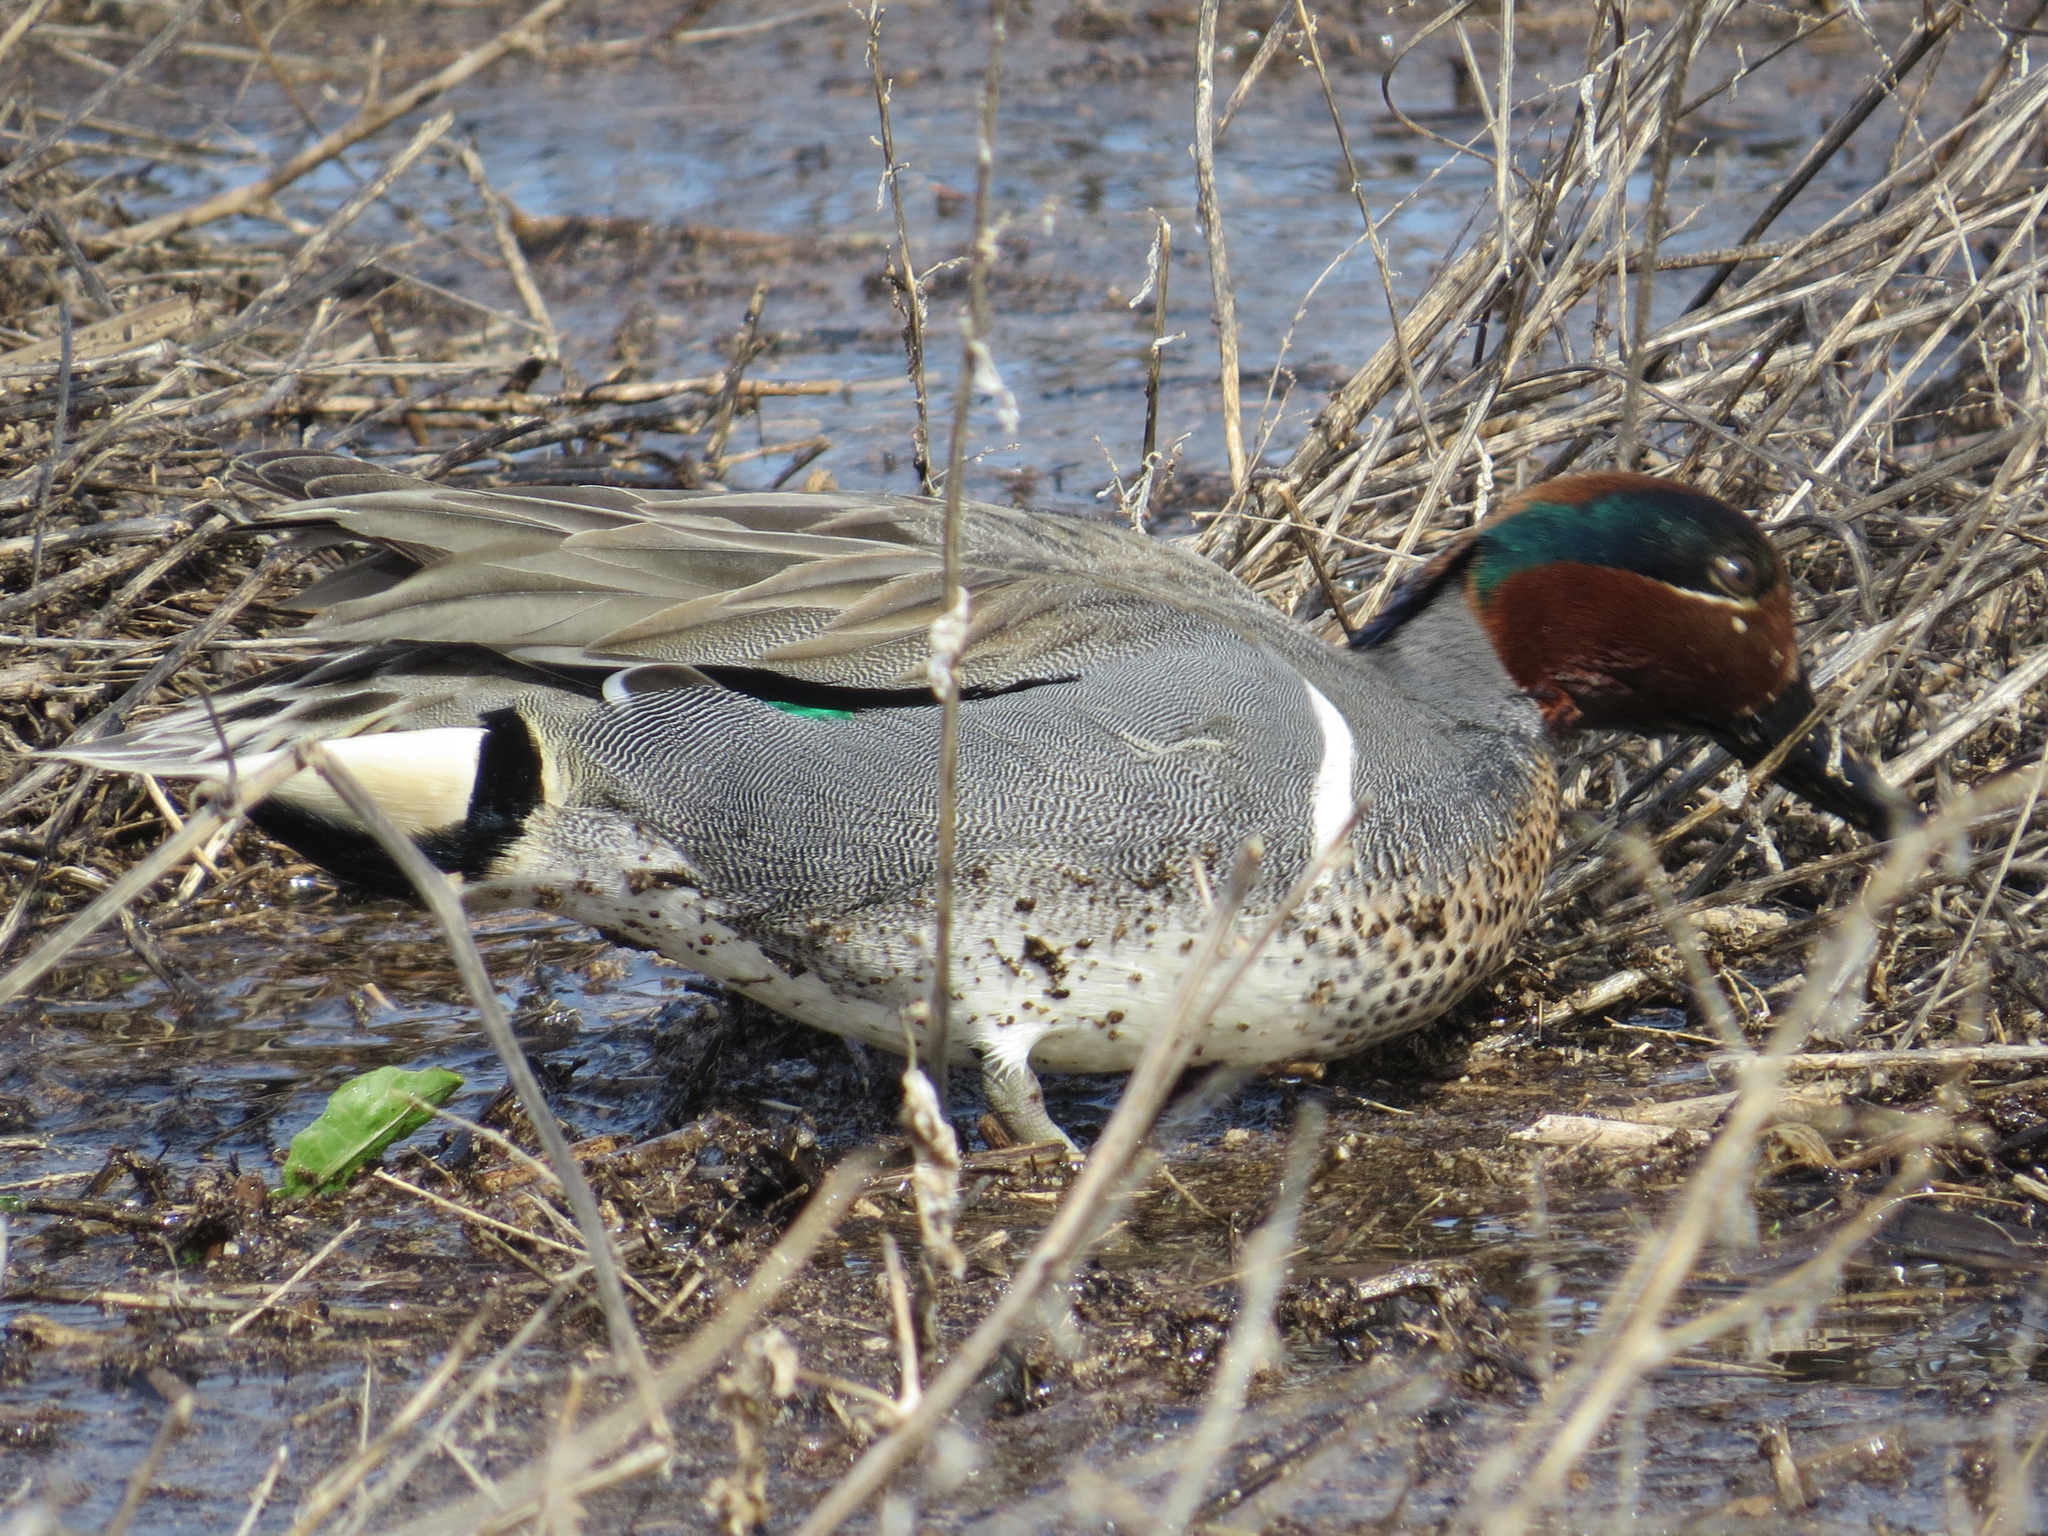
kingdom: Animalia
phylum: Chordata
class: Aves
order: Anseriformes
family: Anatidae
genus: Anas
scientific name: Anas crecca
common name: Eurasian teal
